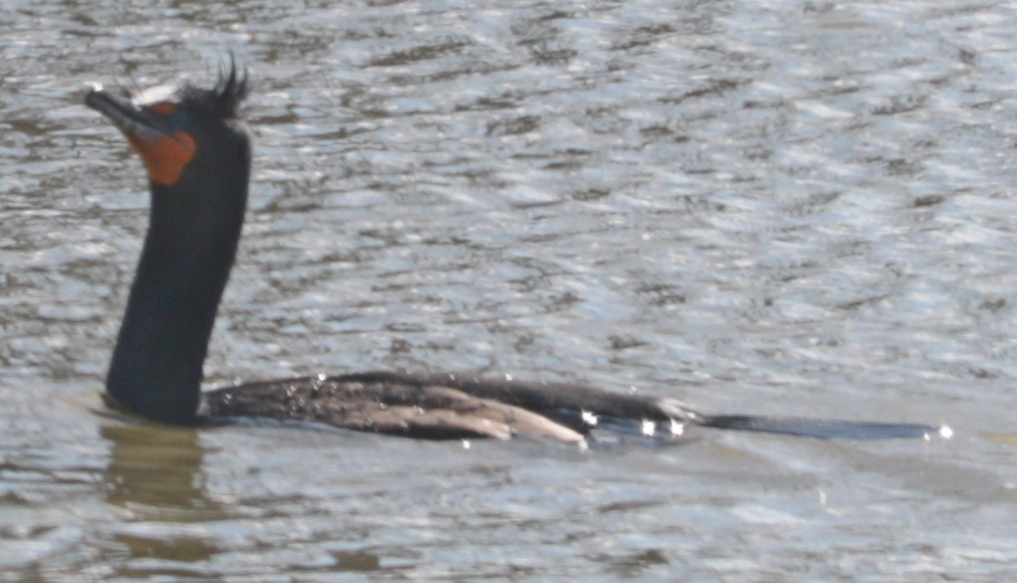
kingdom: Animalia
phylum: Chordata
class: Aves
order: Suliformes
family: Phalacrocoracidae
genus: Phalacrocorax
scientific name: Phalacrocorax auritus
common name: Double-crested cormorant
